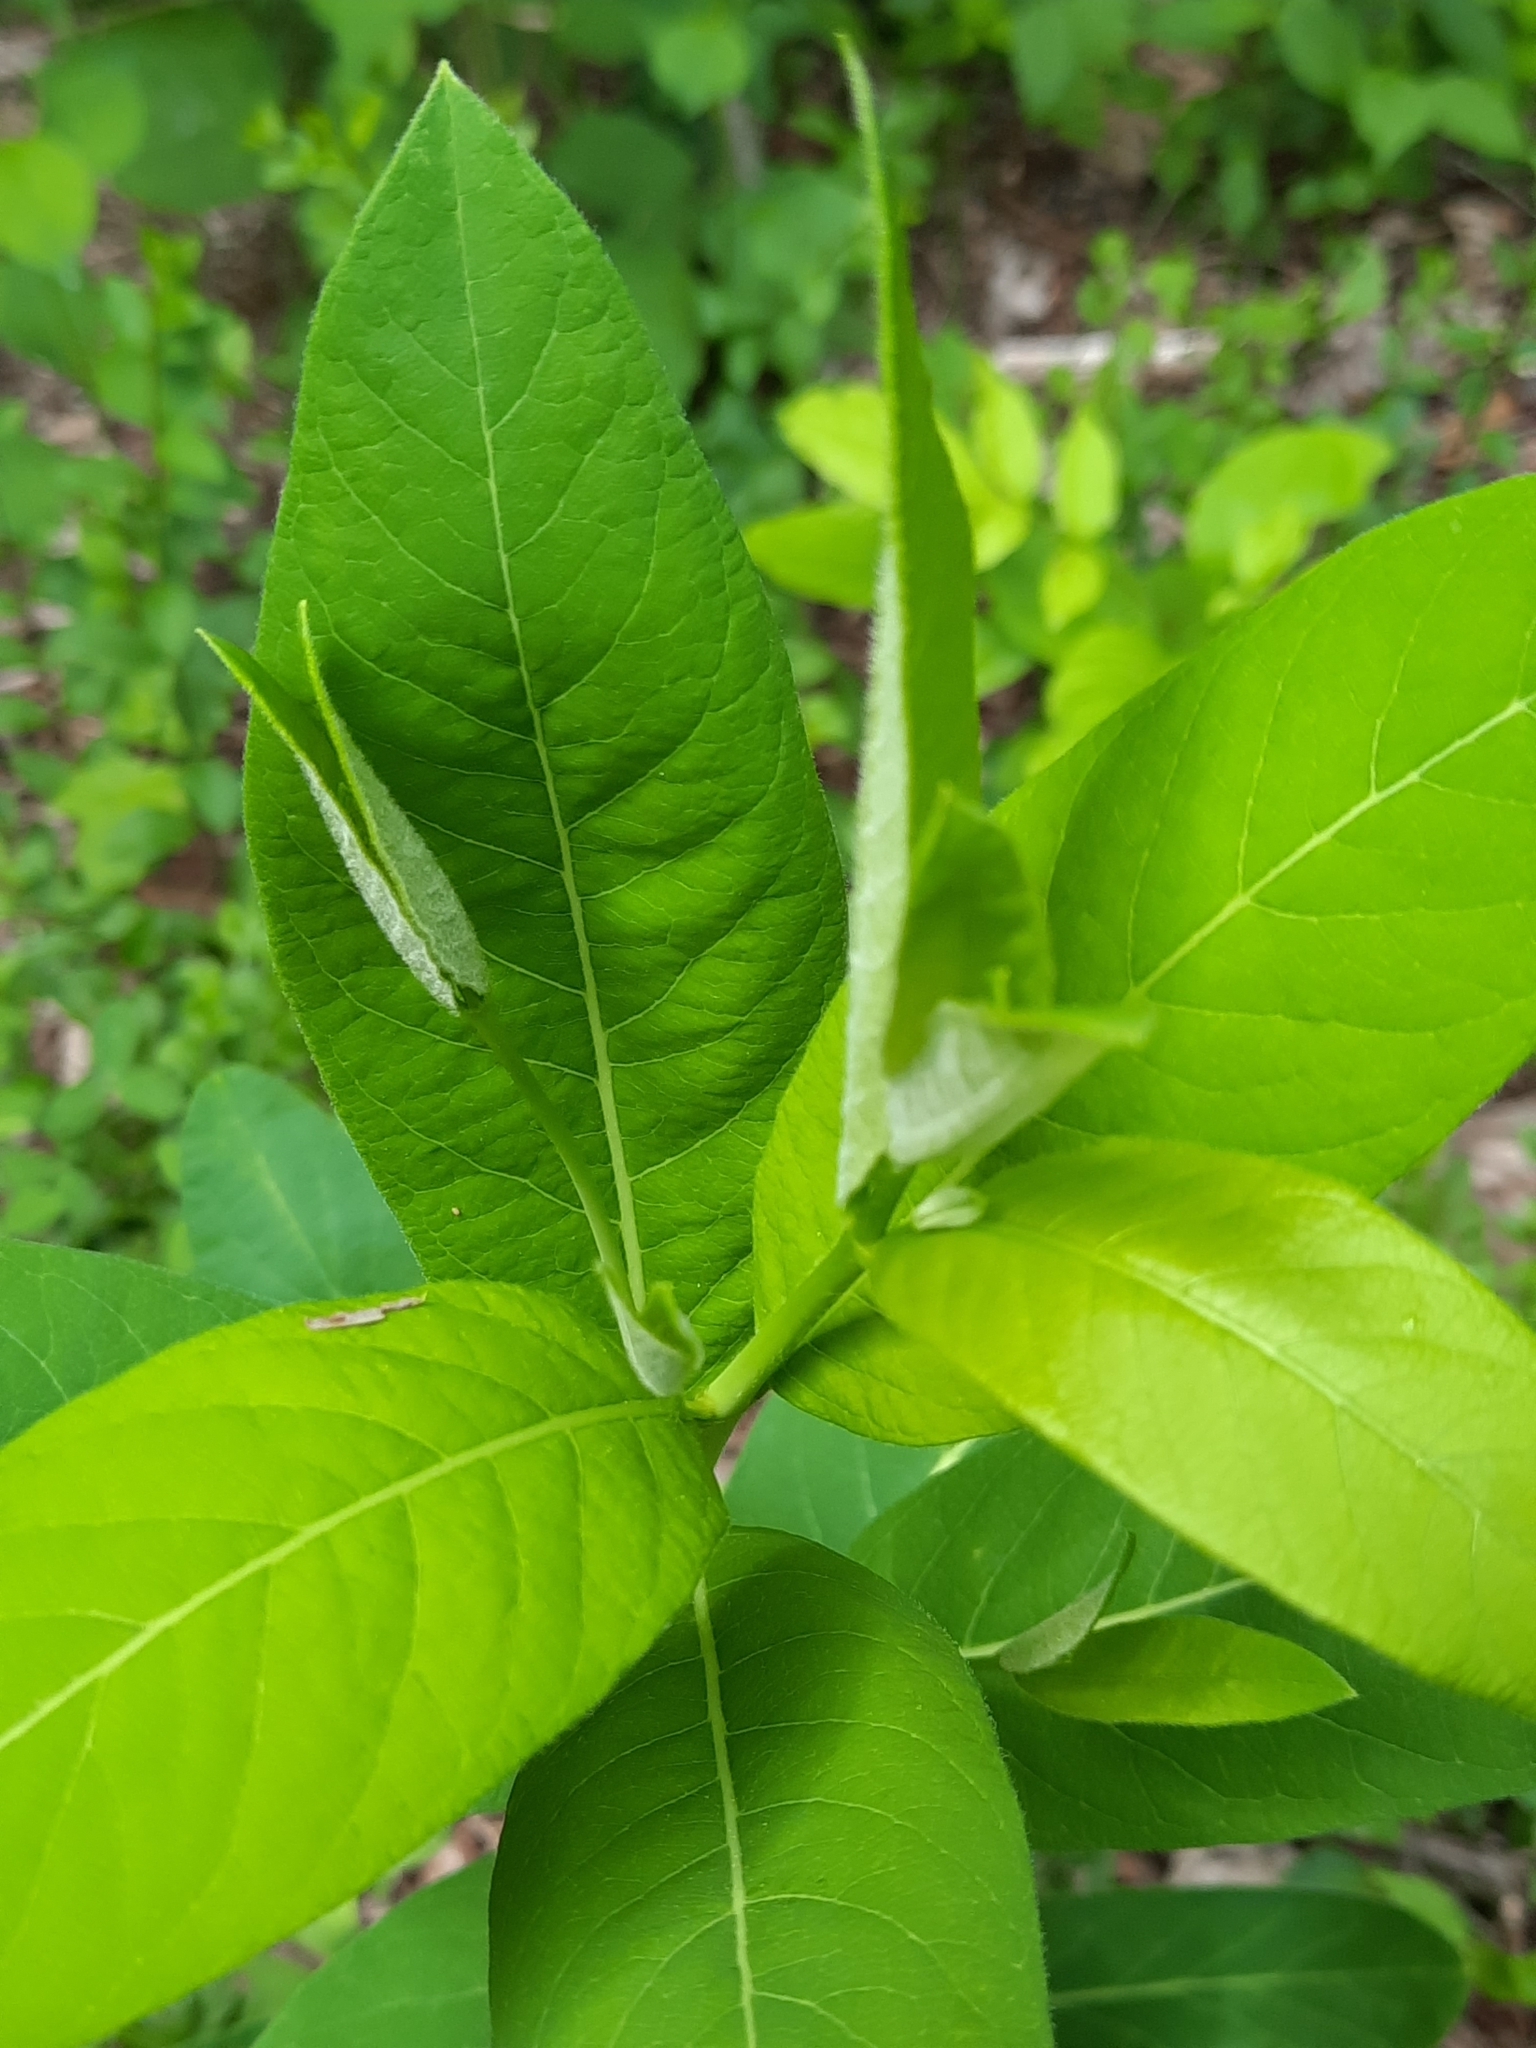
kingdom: Plantae
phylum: Tracheophyta
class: Magnoliopsida
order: Gentianales
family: Apocynaceae
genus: Apocynum
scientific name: Apocynum cannabinum
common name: Hemp dogbane
